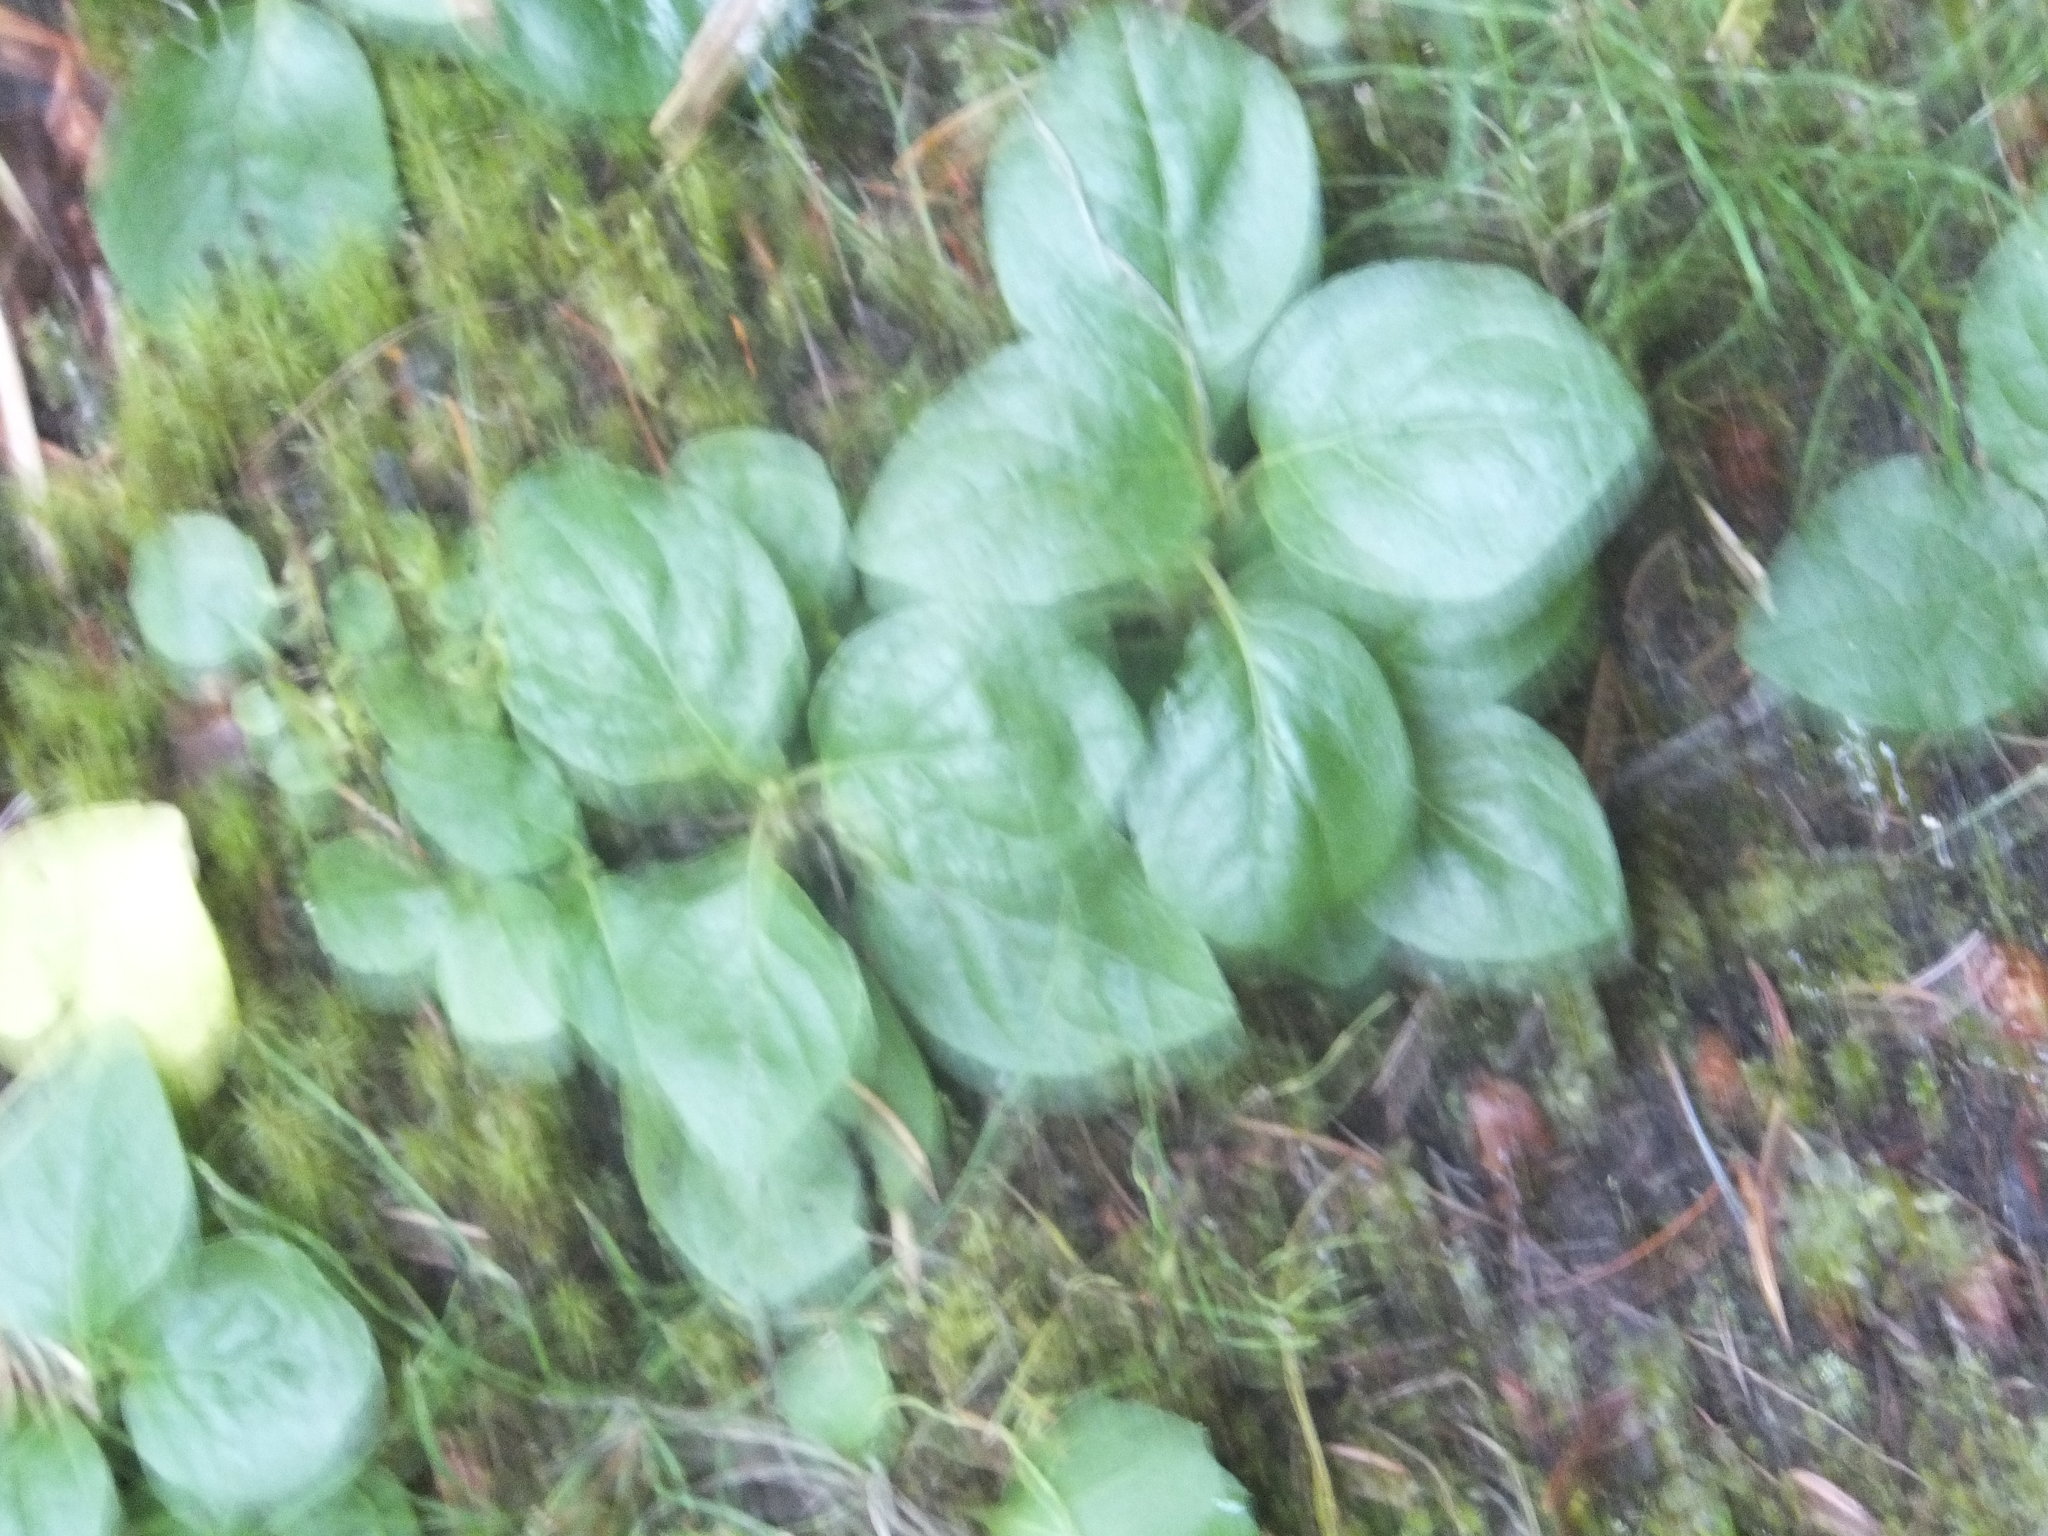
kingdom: Plantae
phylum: Tracheophyta
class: Magnoliopsida
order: Ericales
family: Ericaceae
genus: Orthilia
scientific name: Orthilia secunda
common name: One-sided orthilia
